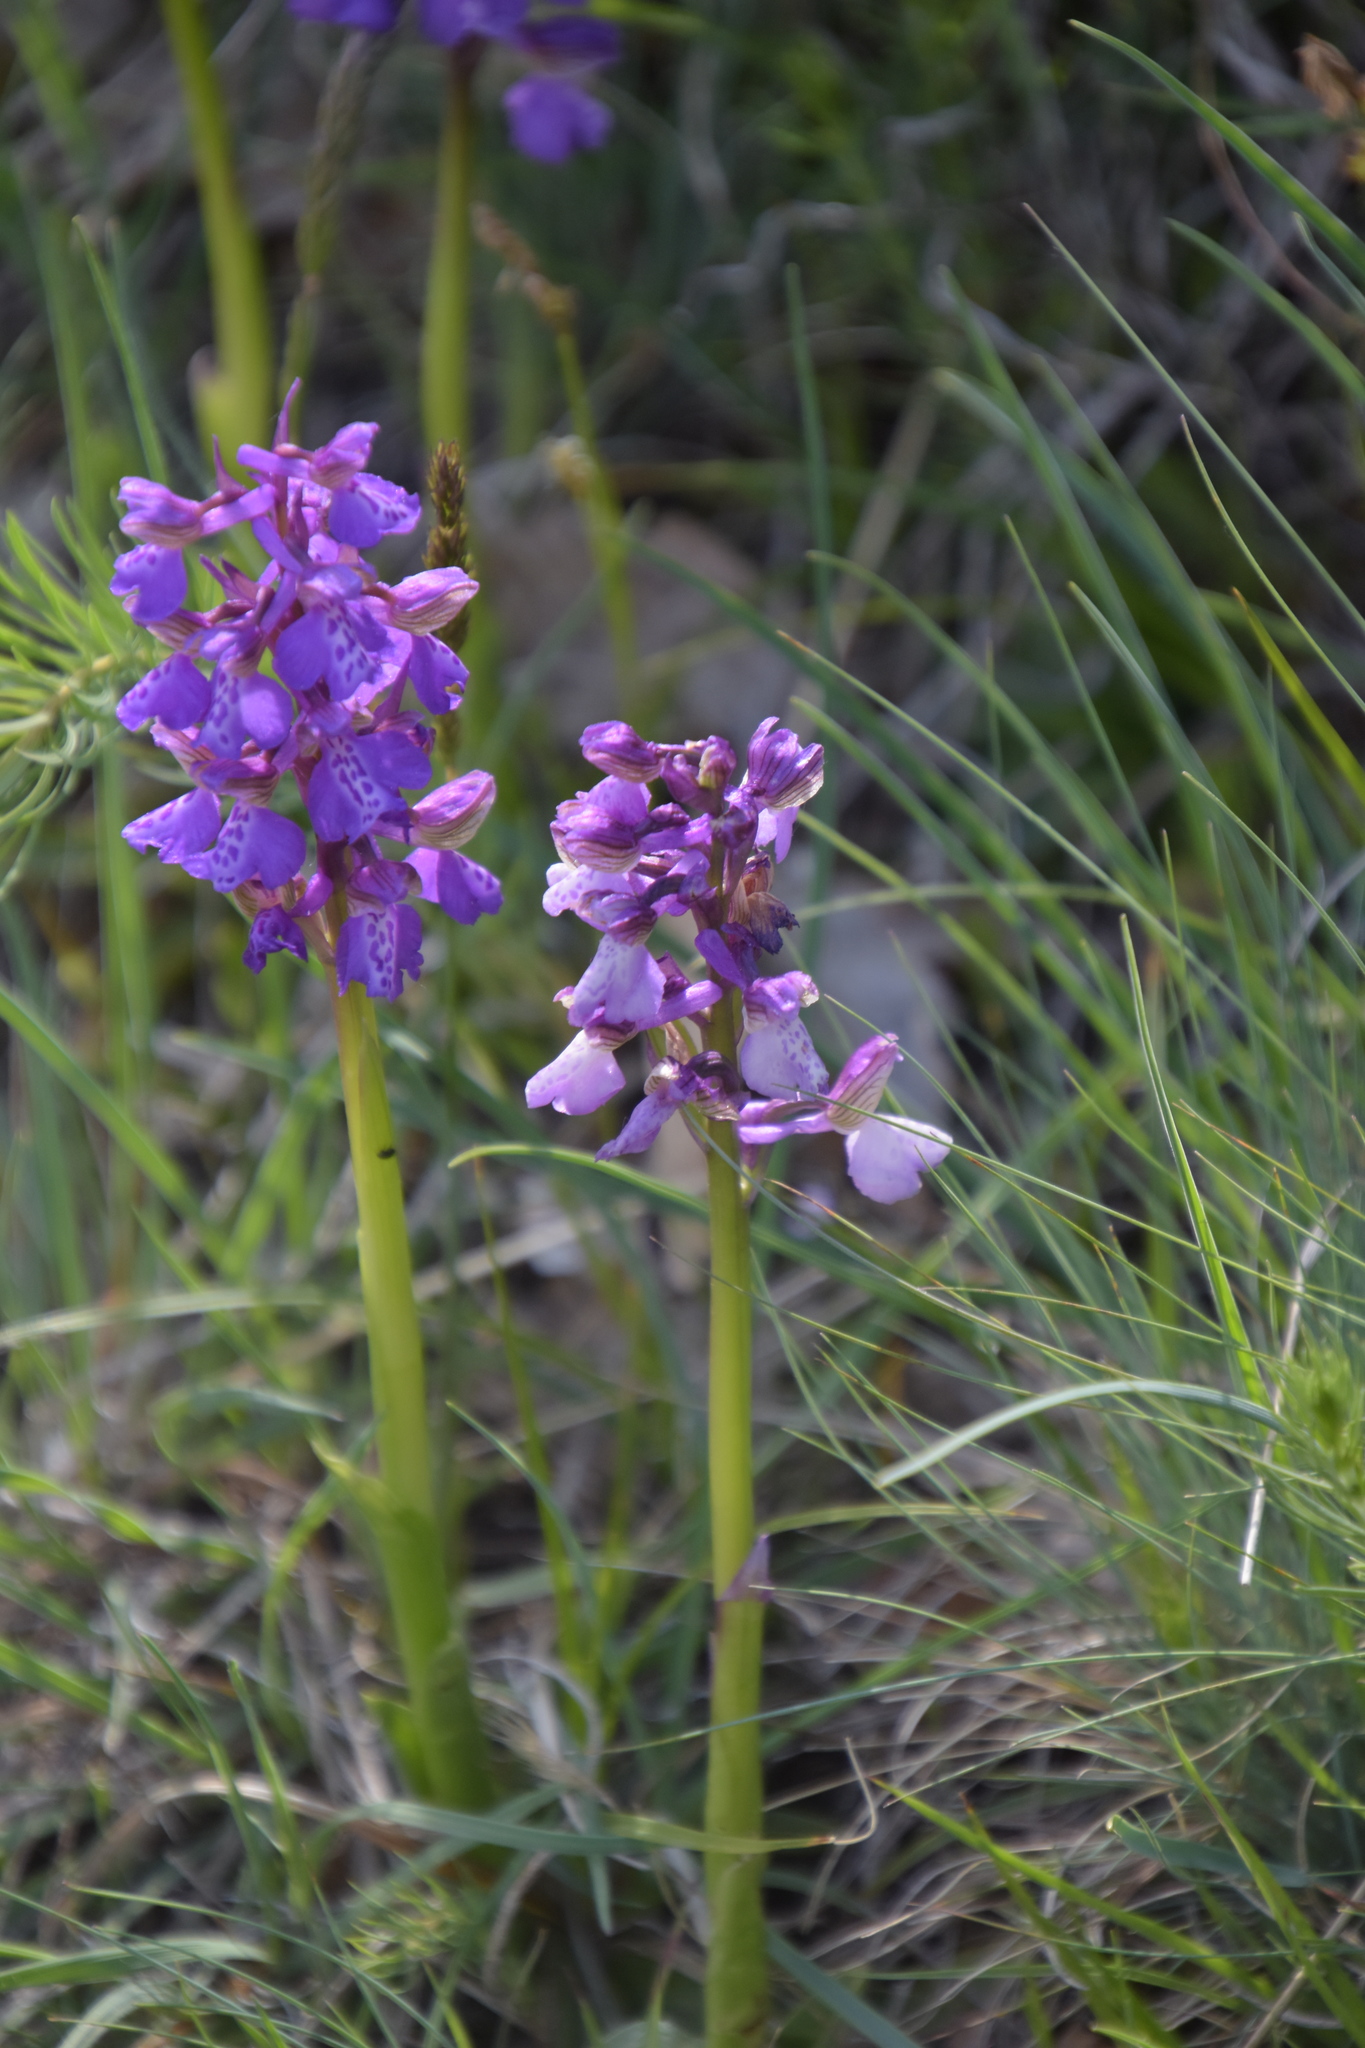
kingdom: Plantae
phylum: Tracheophyta
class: Liliopsida
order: Asparagales
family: Orchidaceae
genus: Anacamptis
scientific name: Anacamptis morio
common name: Green-winged orchid
